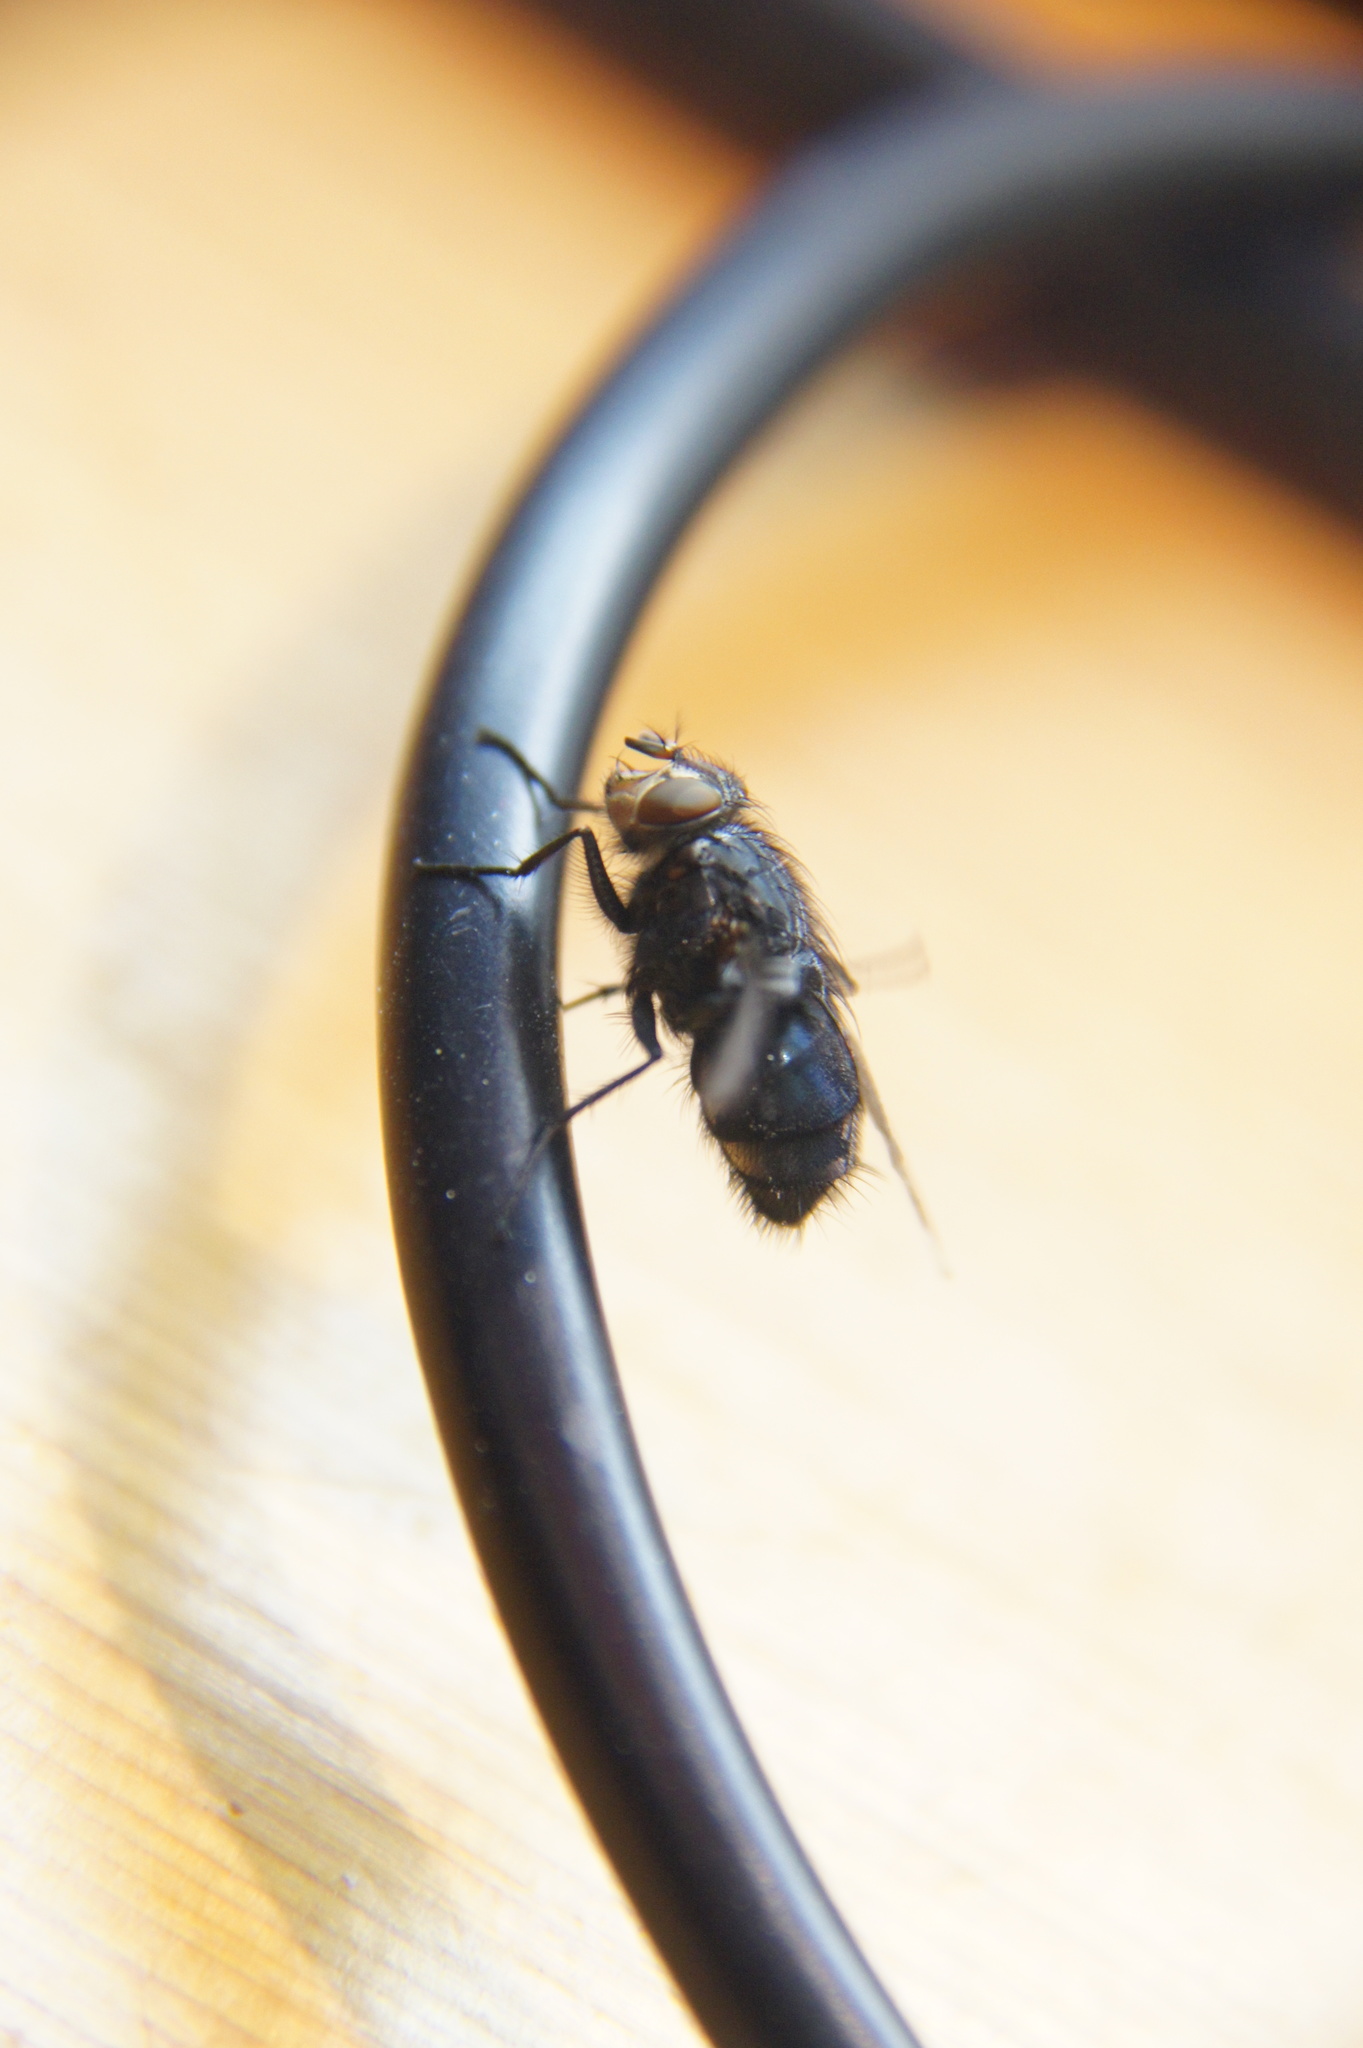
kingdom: Animalia
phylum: Arthropoda
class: Insecta
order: Diptera
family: Calliphoridae
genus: Calliphora
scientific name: Calliphora vicina
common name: Common blow flie
